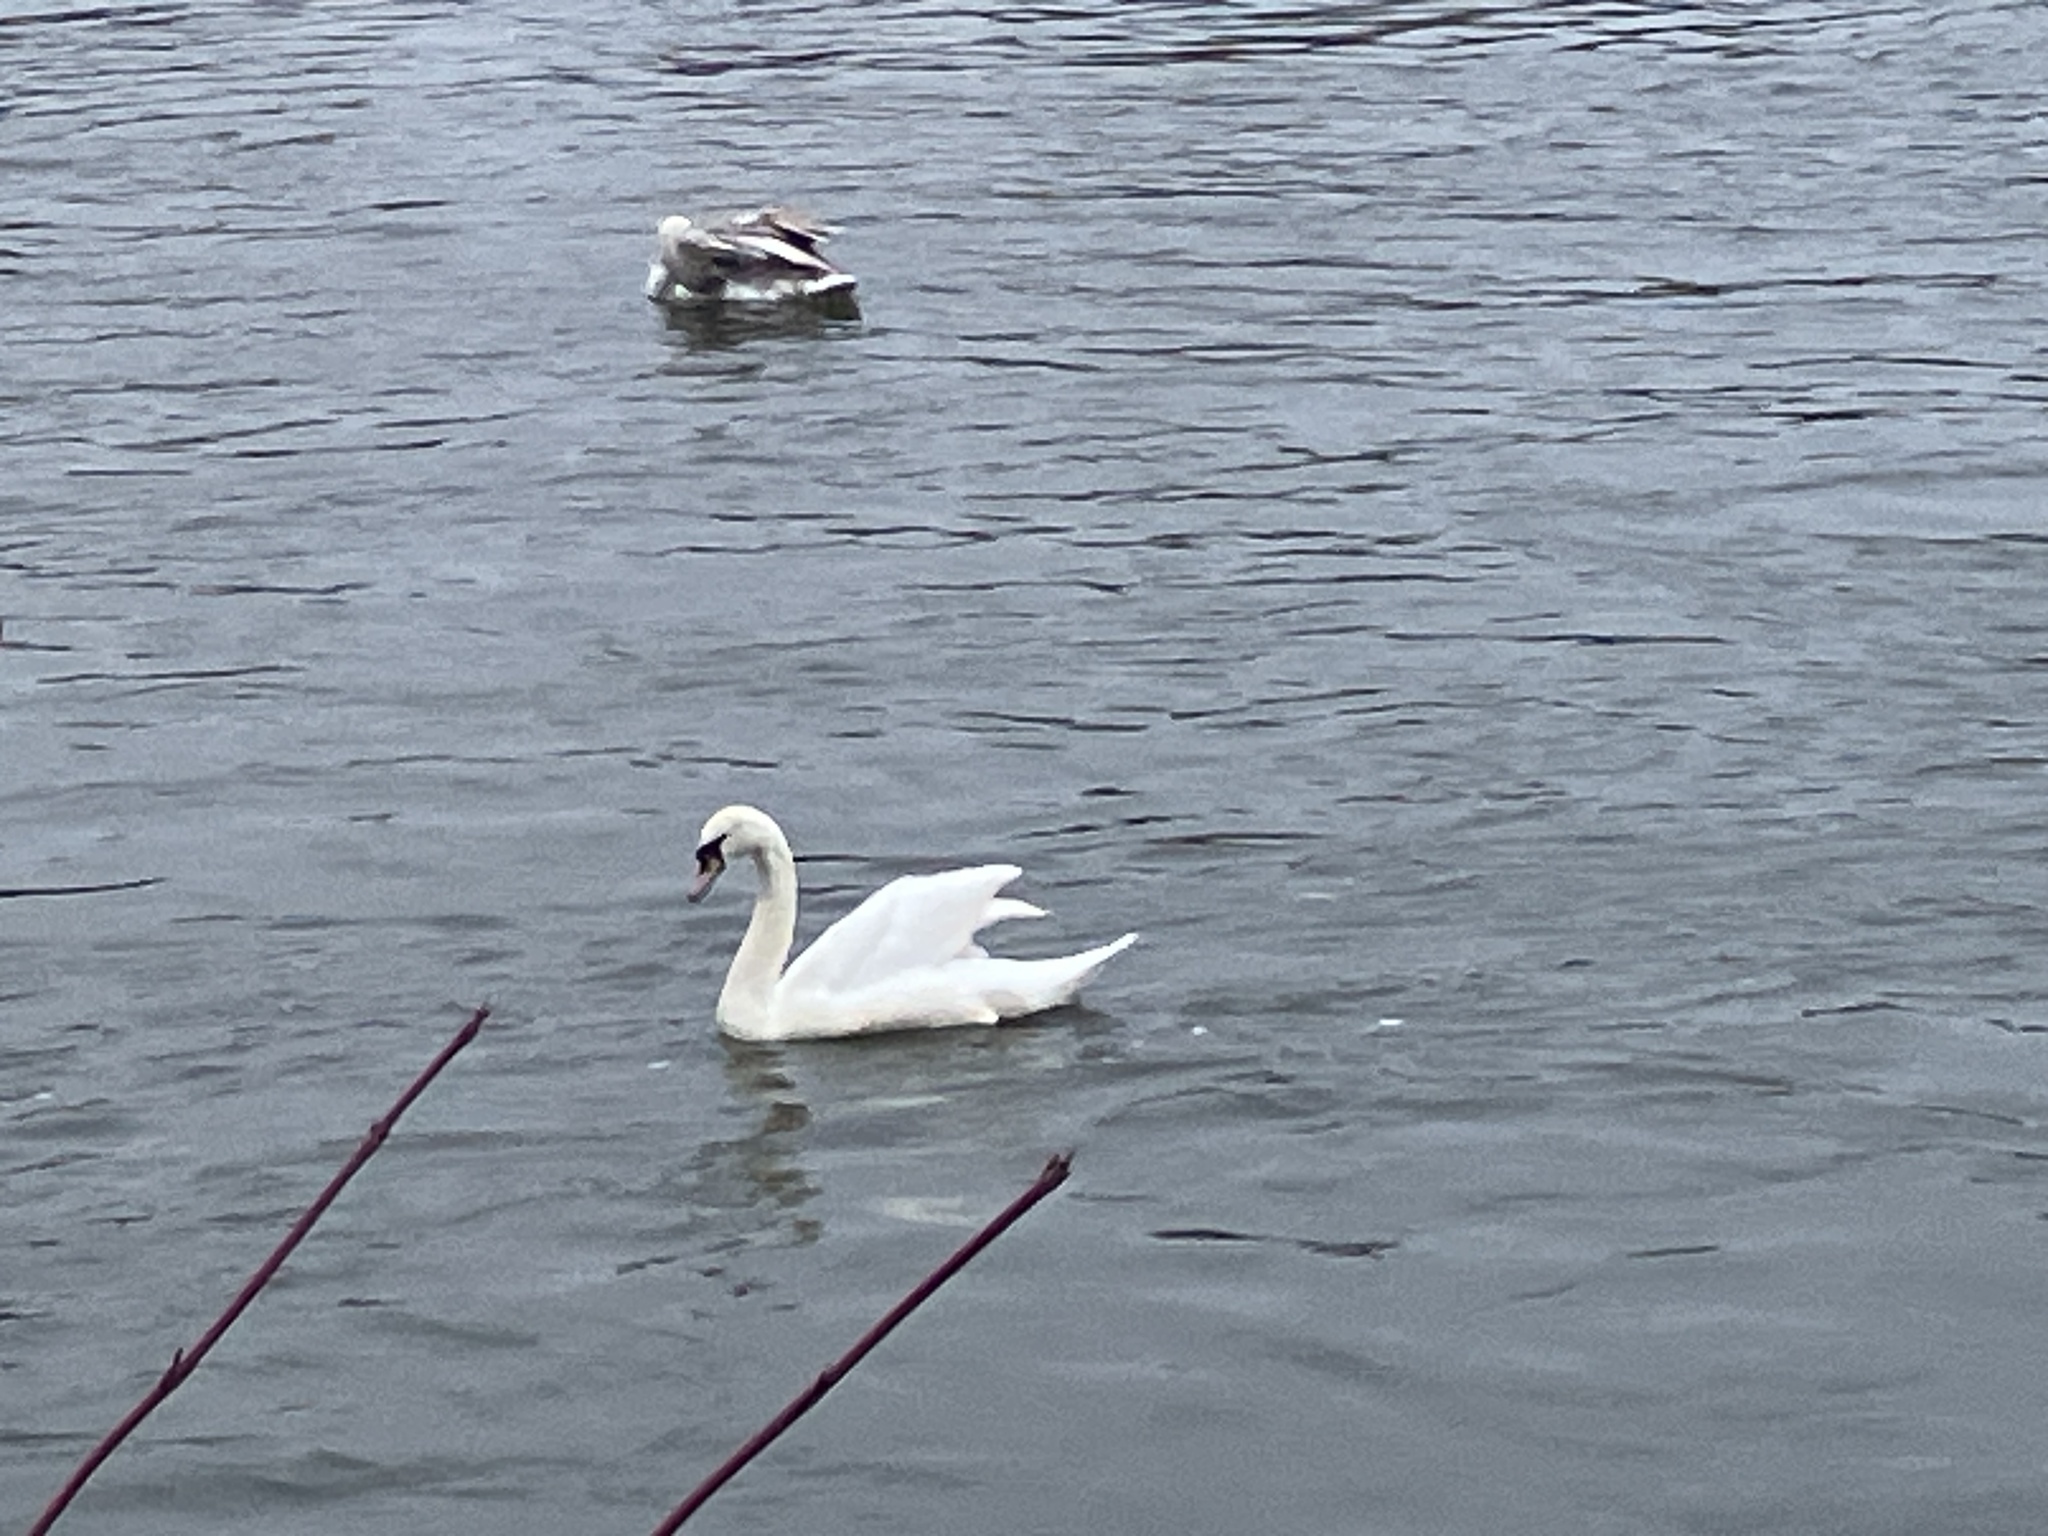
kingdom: Animalia
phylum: Chordata
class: Aves
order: Anseriformes
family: Anatidae
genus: Cygnus
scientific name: Cygnus olor
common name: Mute swan
